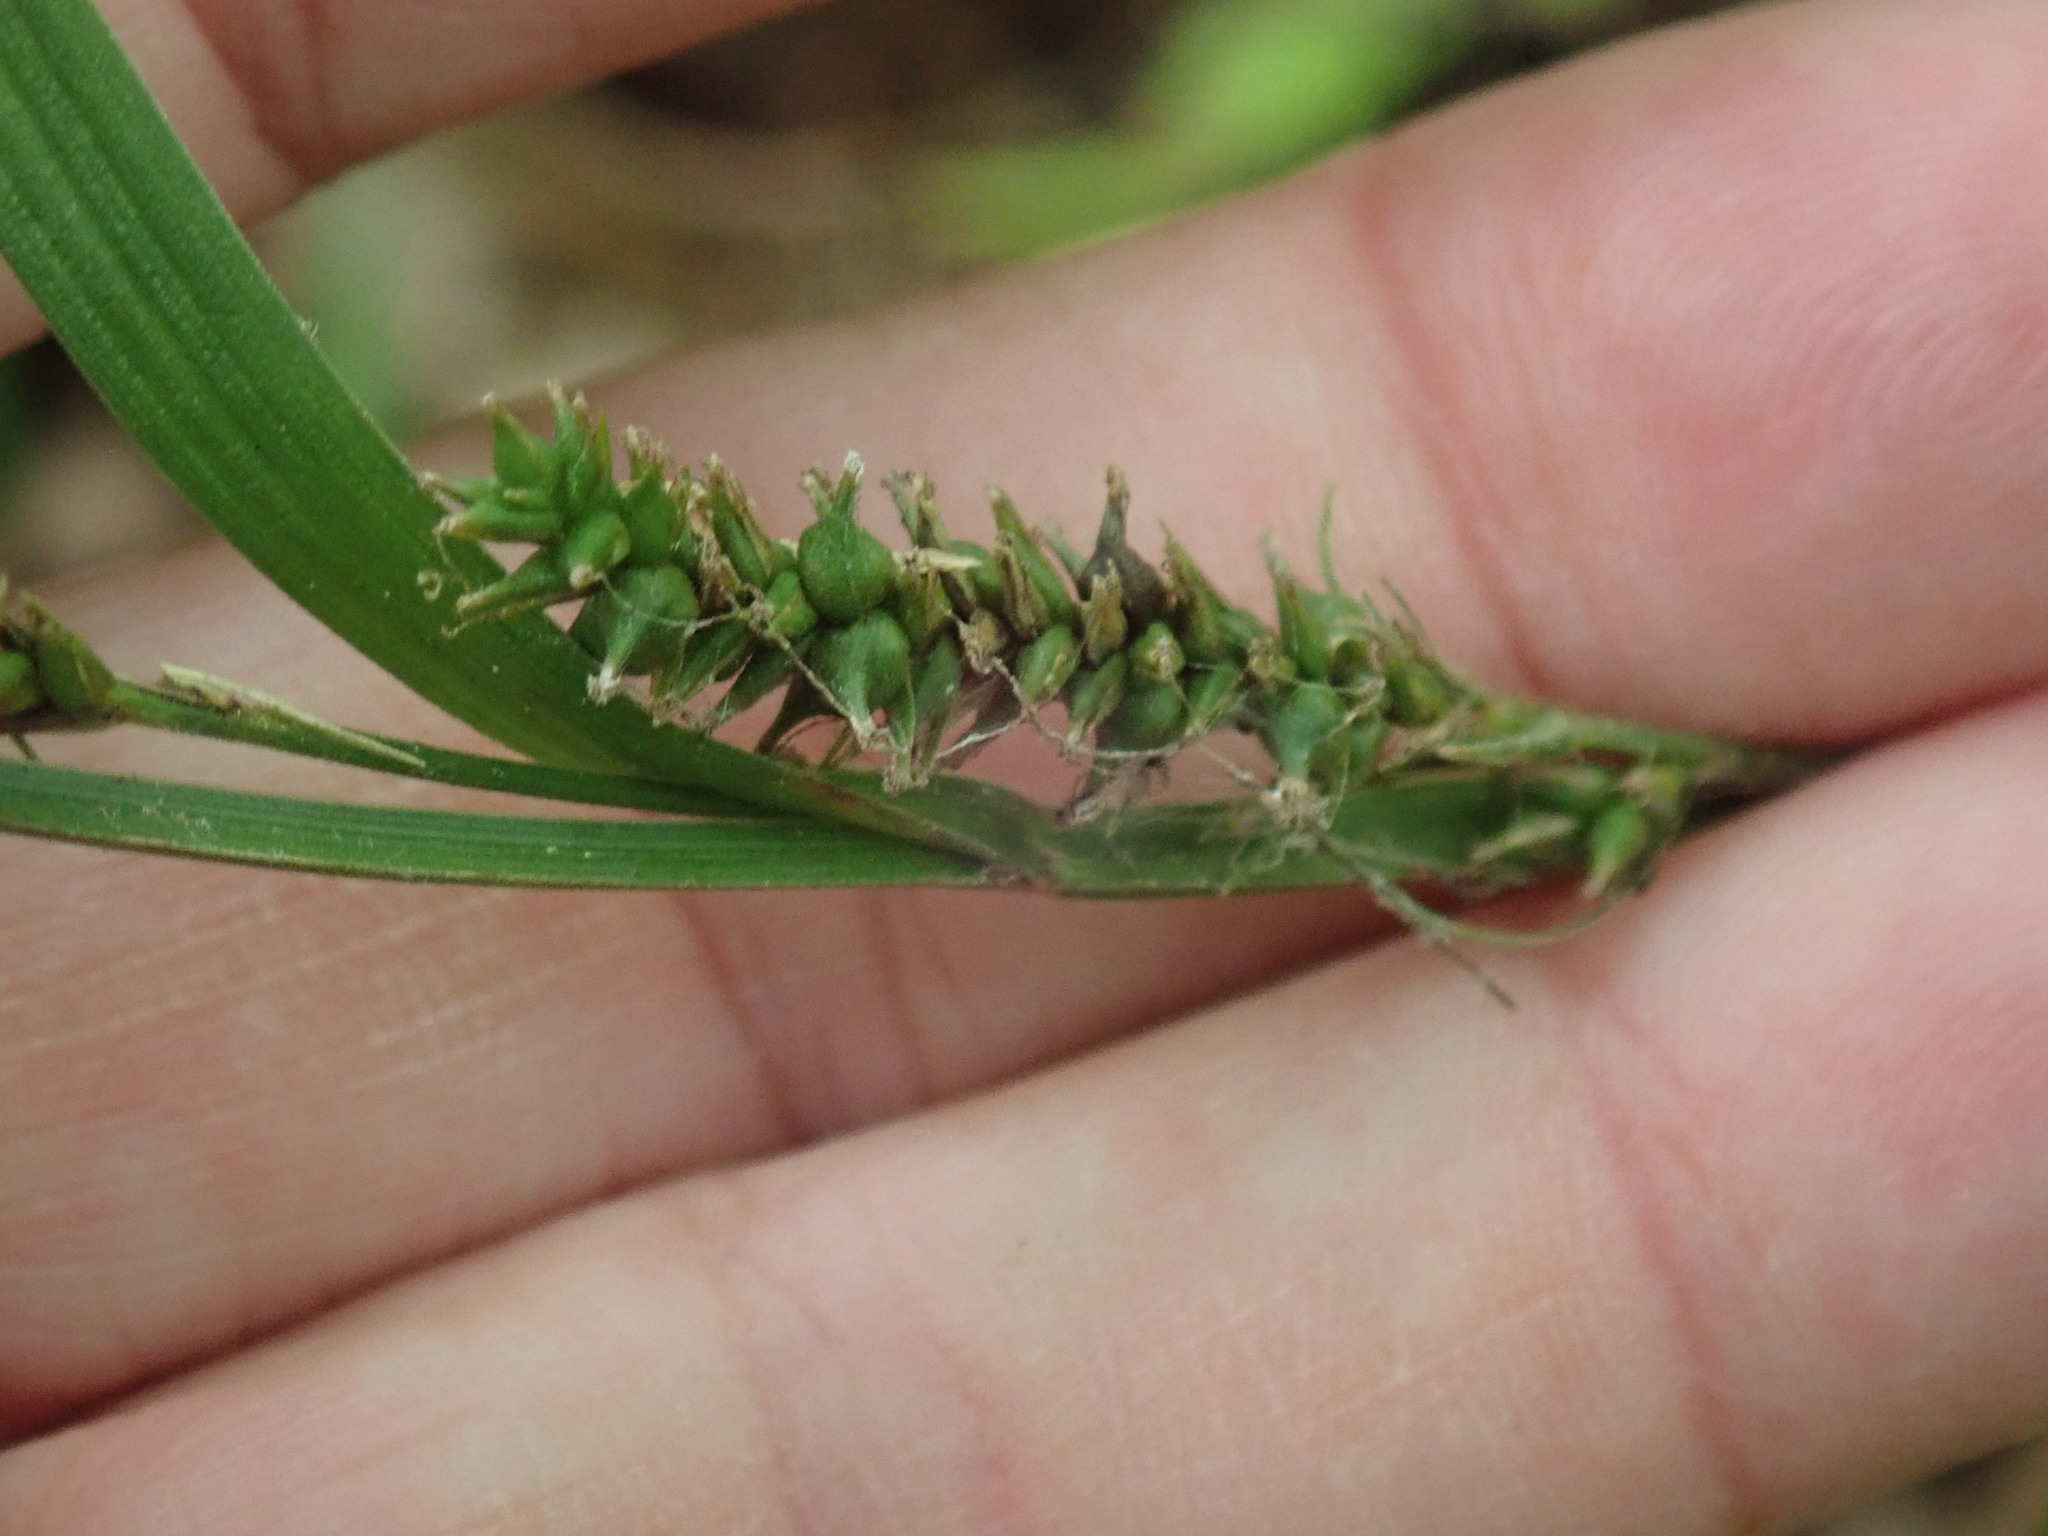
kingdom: Plantae
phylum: Tracheophyta
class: Liliopsida
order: Poales
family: Cyperaceae
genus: Carex
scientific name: Carex scabrata
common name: Eastern rough sedge
